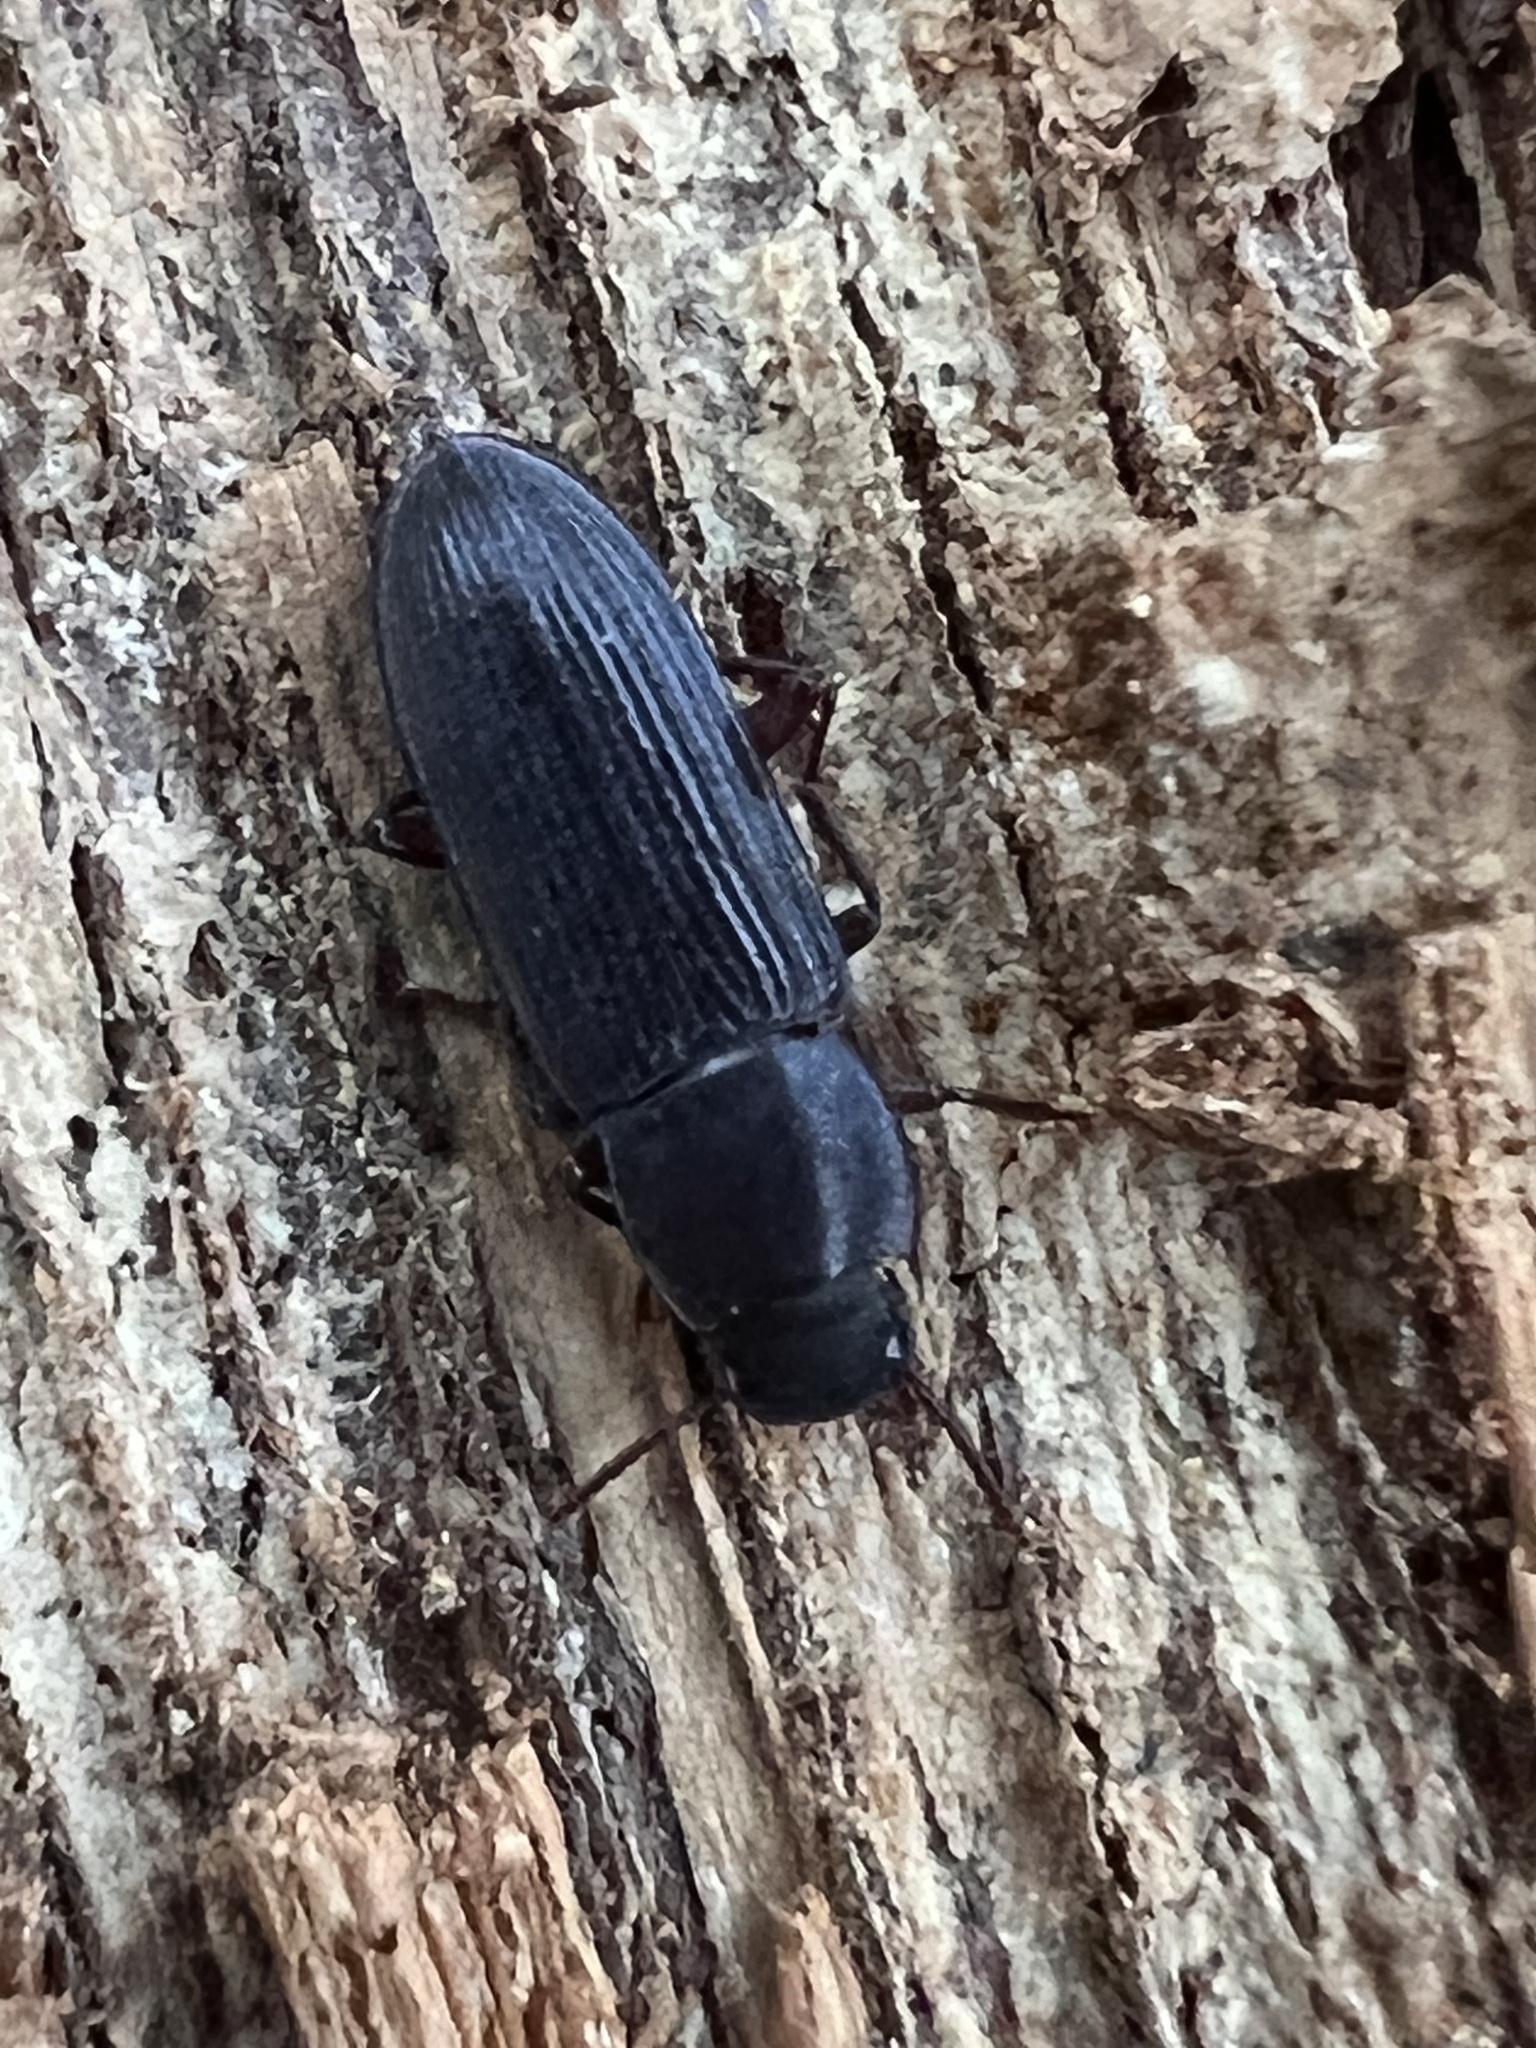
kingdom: Animalia
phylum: Arthropoda
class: Insecta
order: Coleoptera
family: Tenebrionidae
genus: Idiobates
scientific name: Idiobates castaneus
